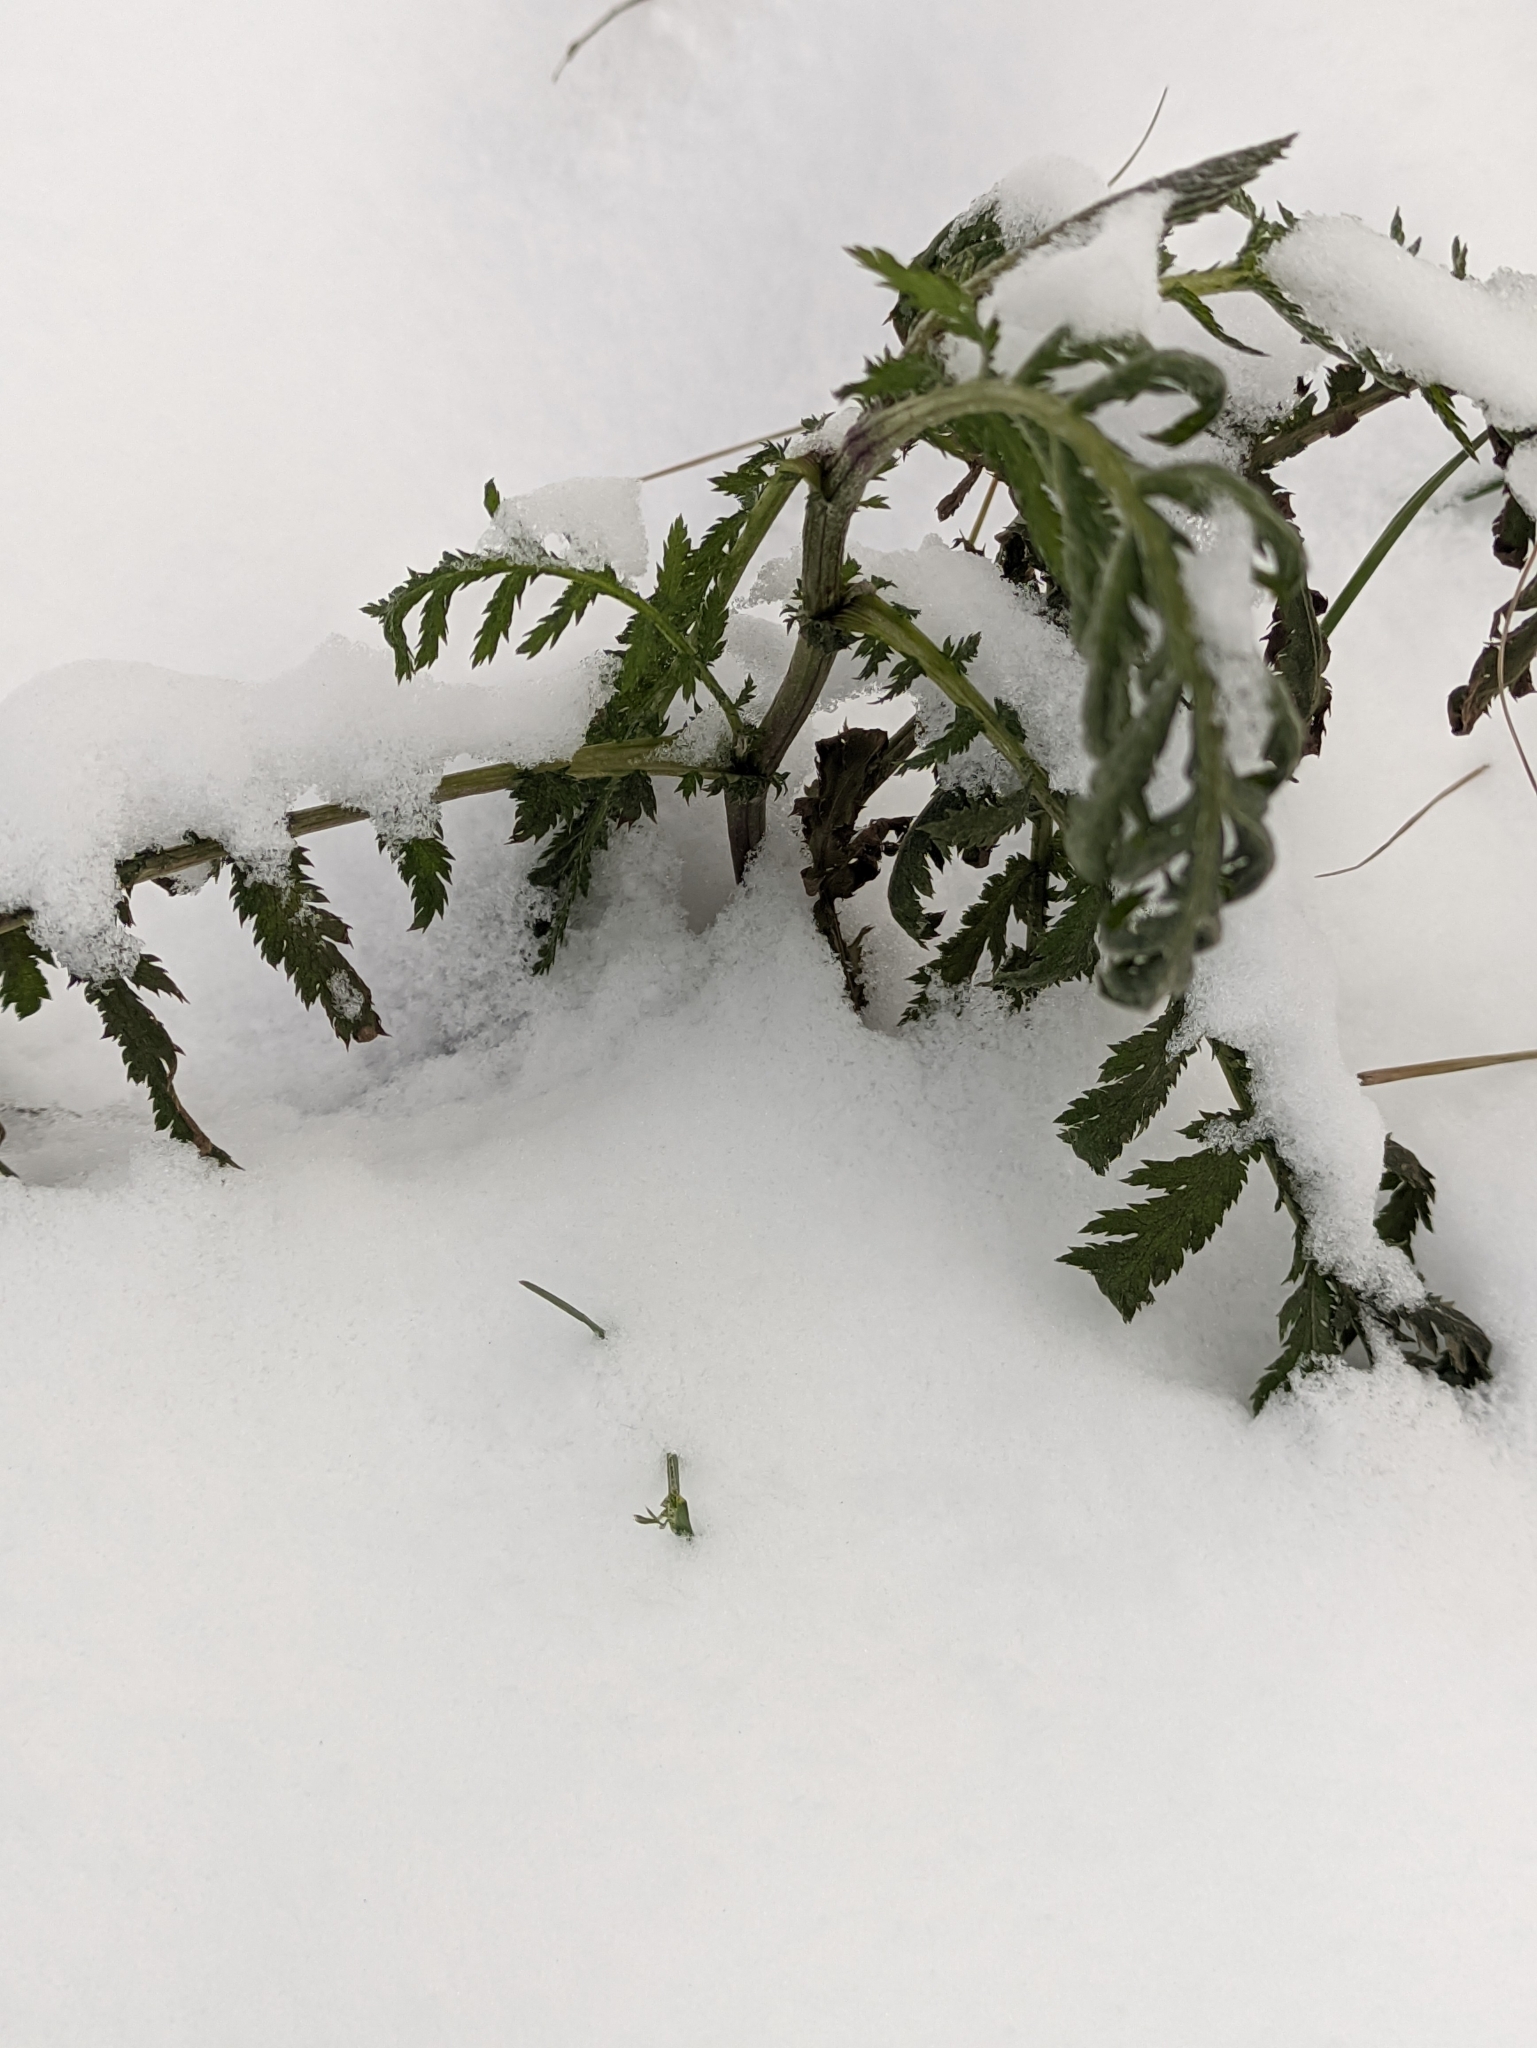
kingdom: Plantae
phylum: Tracheophyta
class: Magnoliopsida
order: Asterales
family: Asteraceae
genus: Tanacetum
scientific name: Tanacetum vulgare
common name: Common tansy
